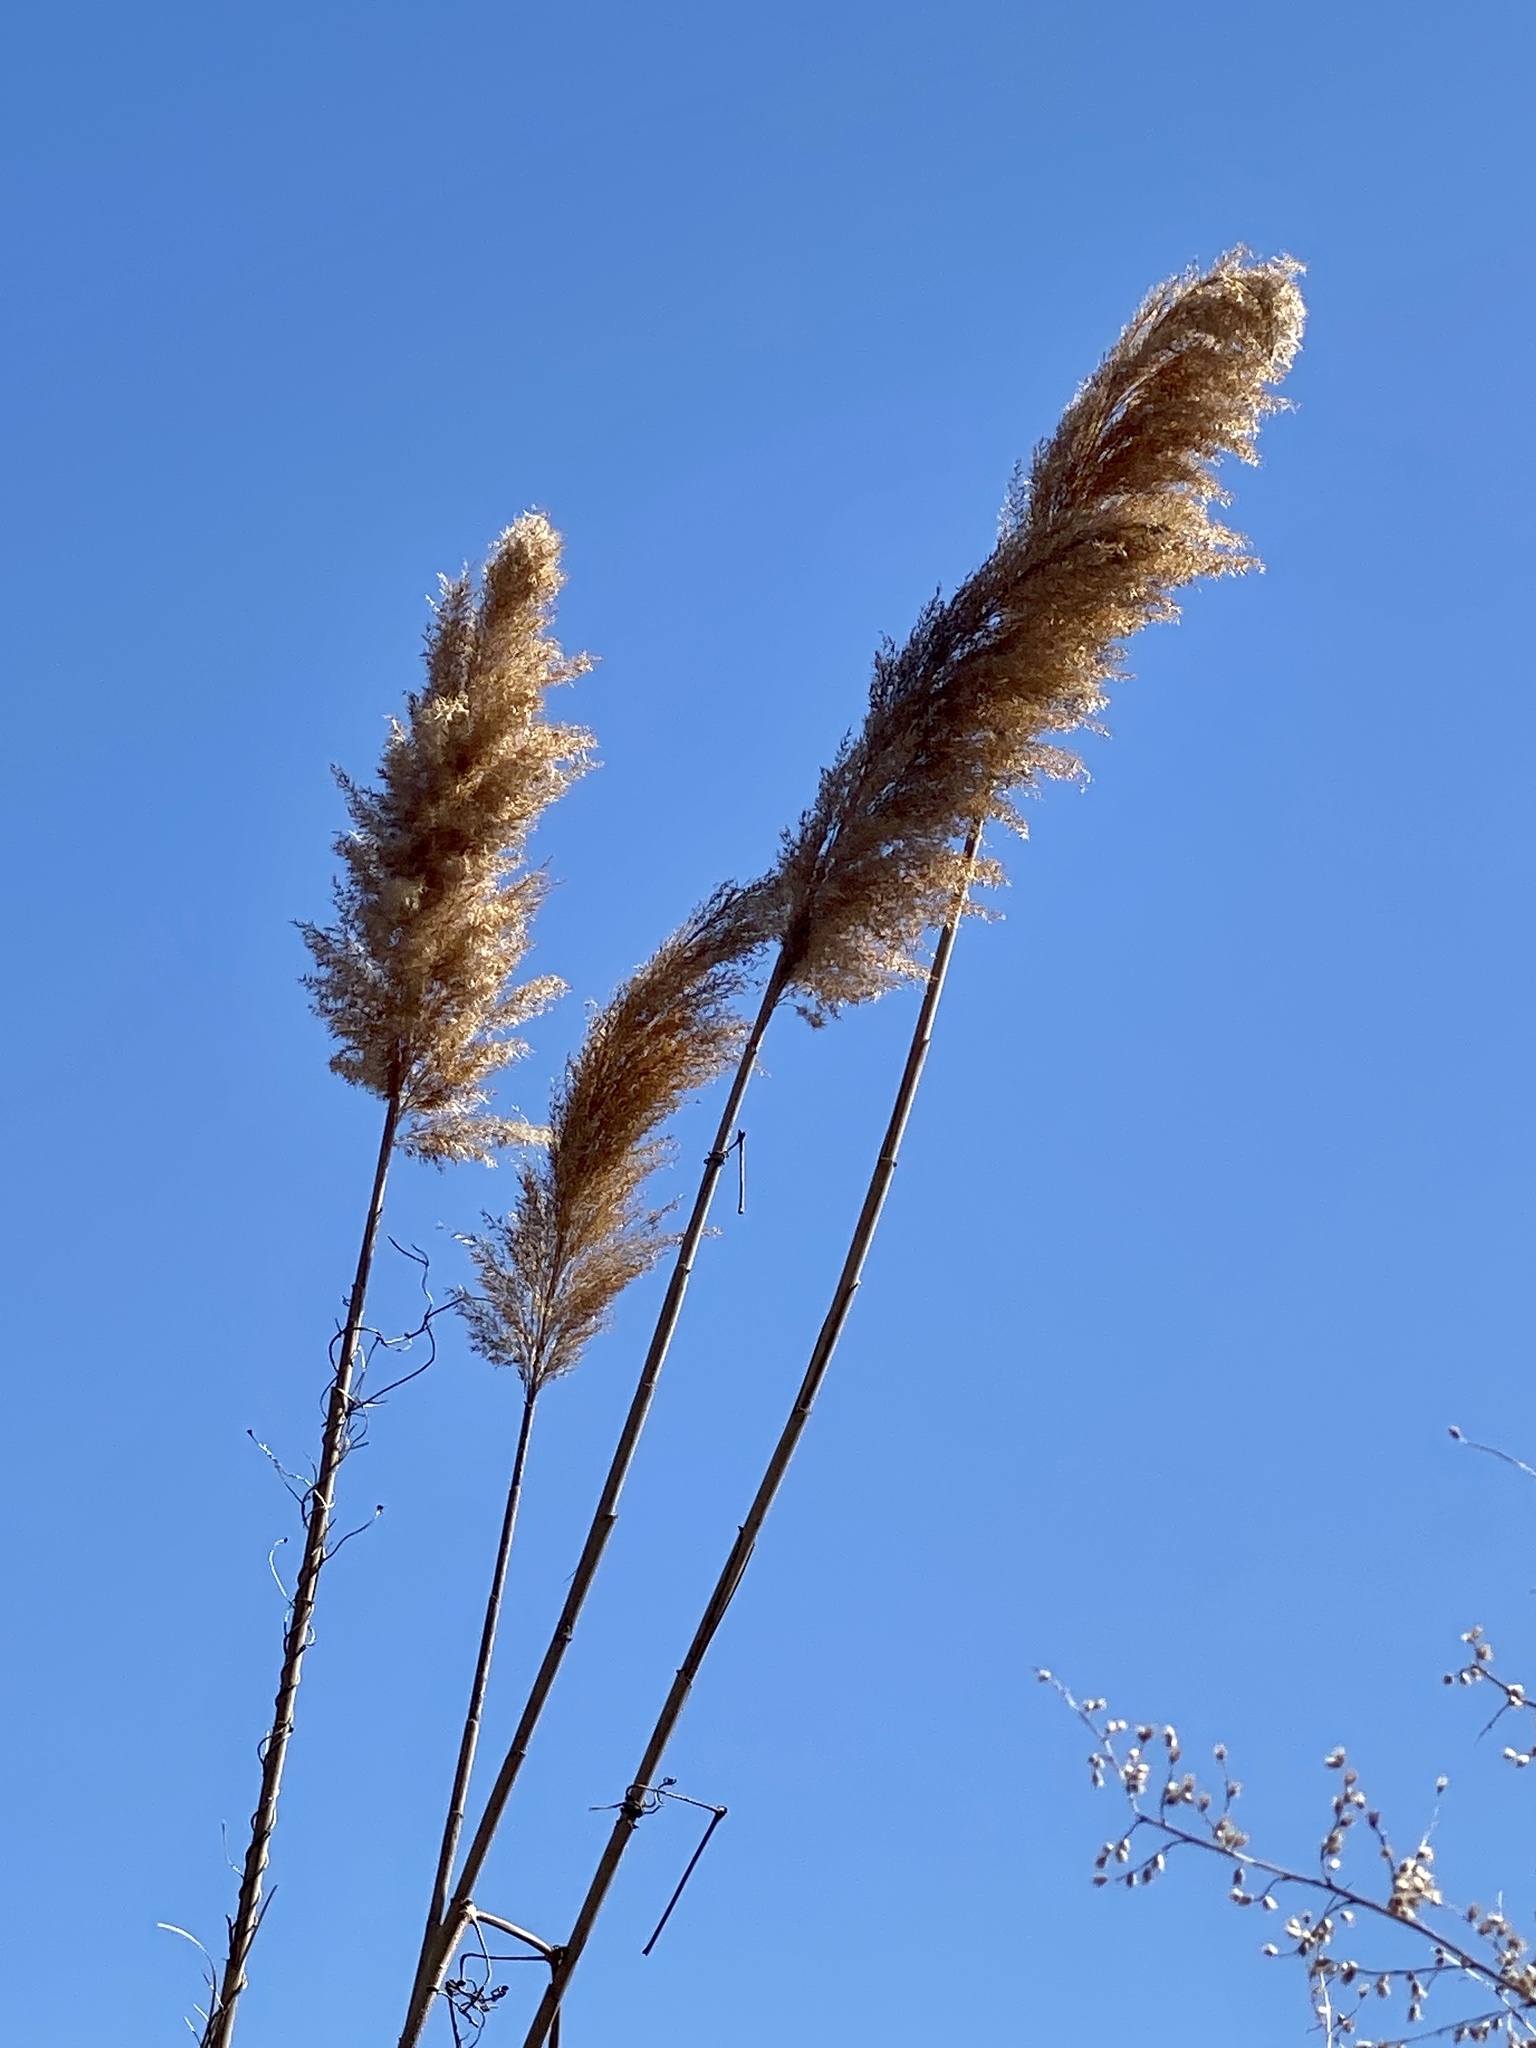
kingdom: Plantae
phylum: Tracheophyta
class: Liliopsida
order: Poales
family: Poaceae
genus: Phragmites
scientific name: Phragmites australis
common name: Common reed
